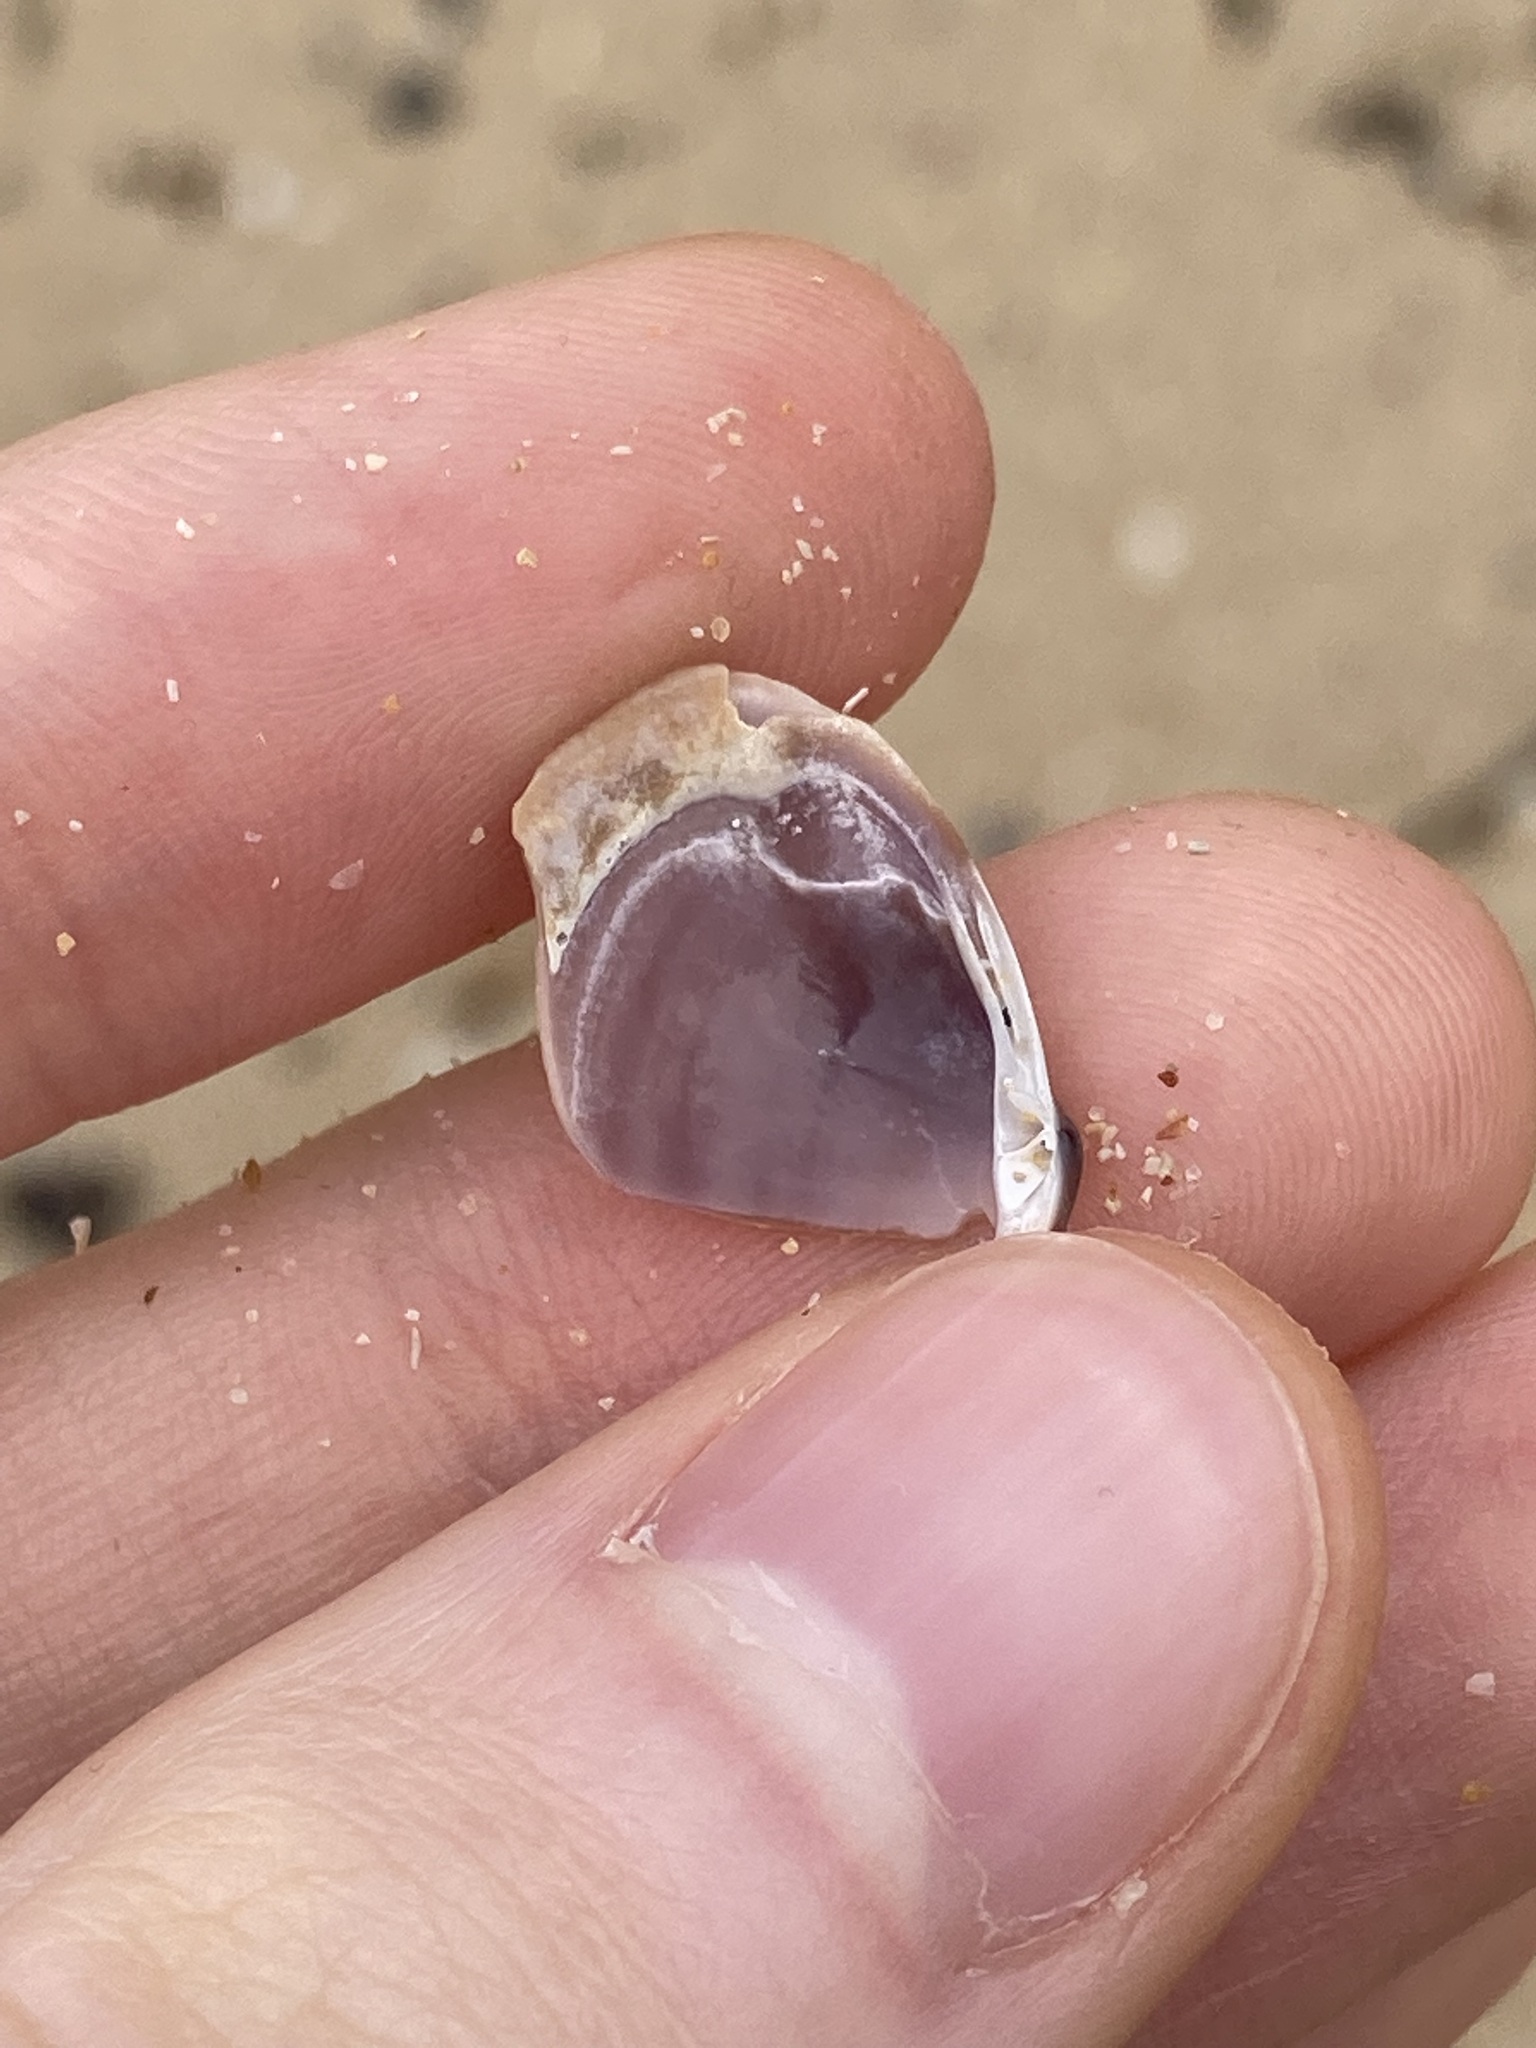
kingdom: Animalia
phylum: Mollusca
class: Bivalvia
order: Venerida
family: Mactridae
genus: Mactra
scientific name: Mactra pusilla
